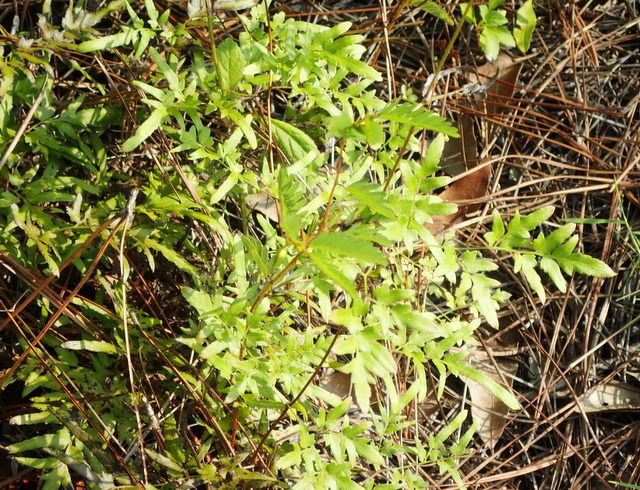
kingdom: Plantae
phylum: Tracheophyta
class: Polypodiopsida
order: Schizaeales
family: Lygodiaceae
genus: Lygodium
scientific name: Lygodium japonicum
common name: Japanese climbing fern
